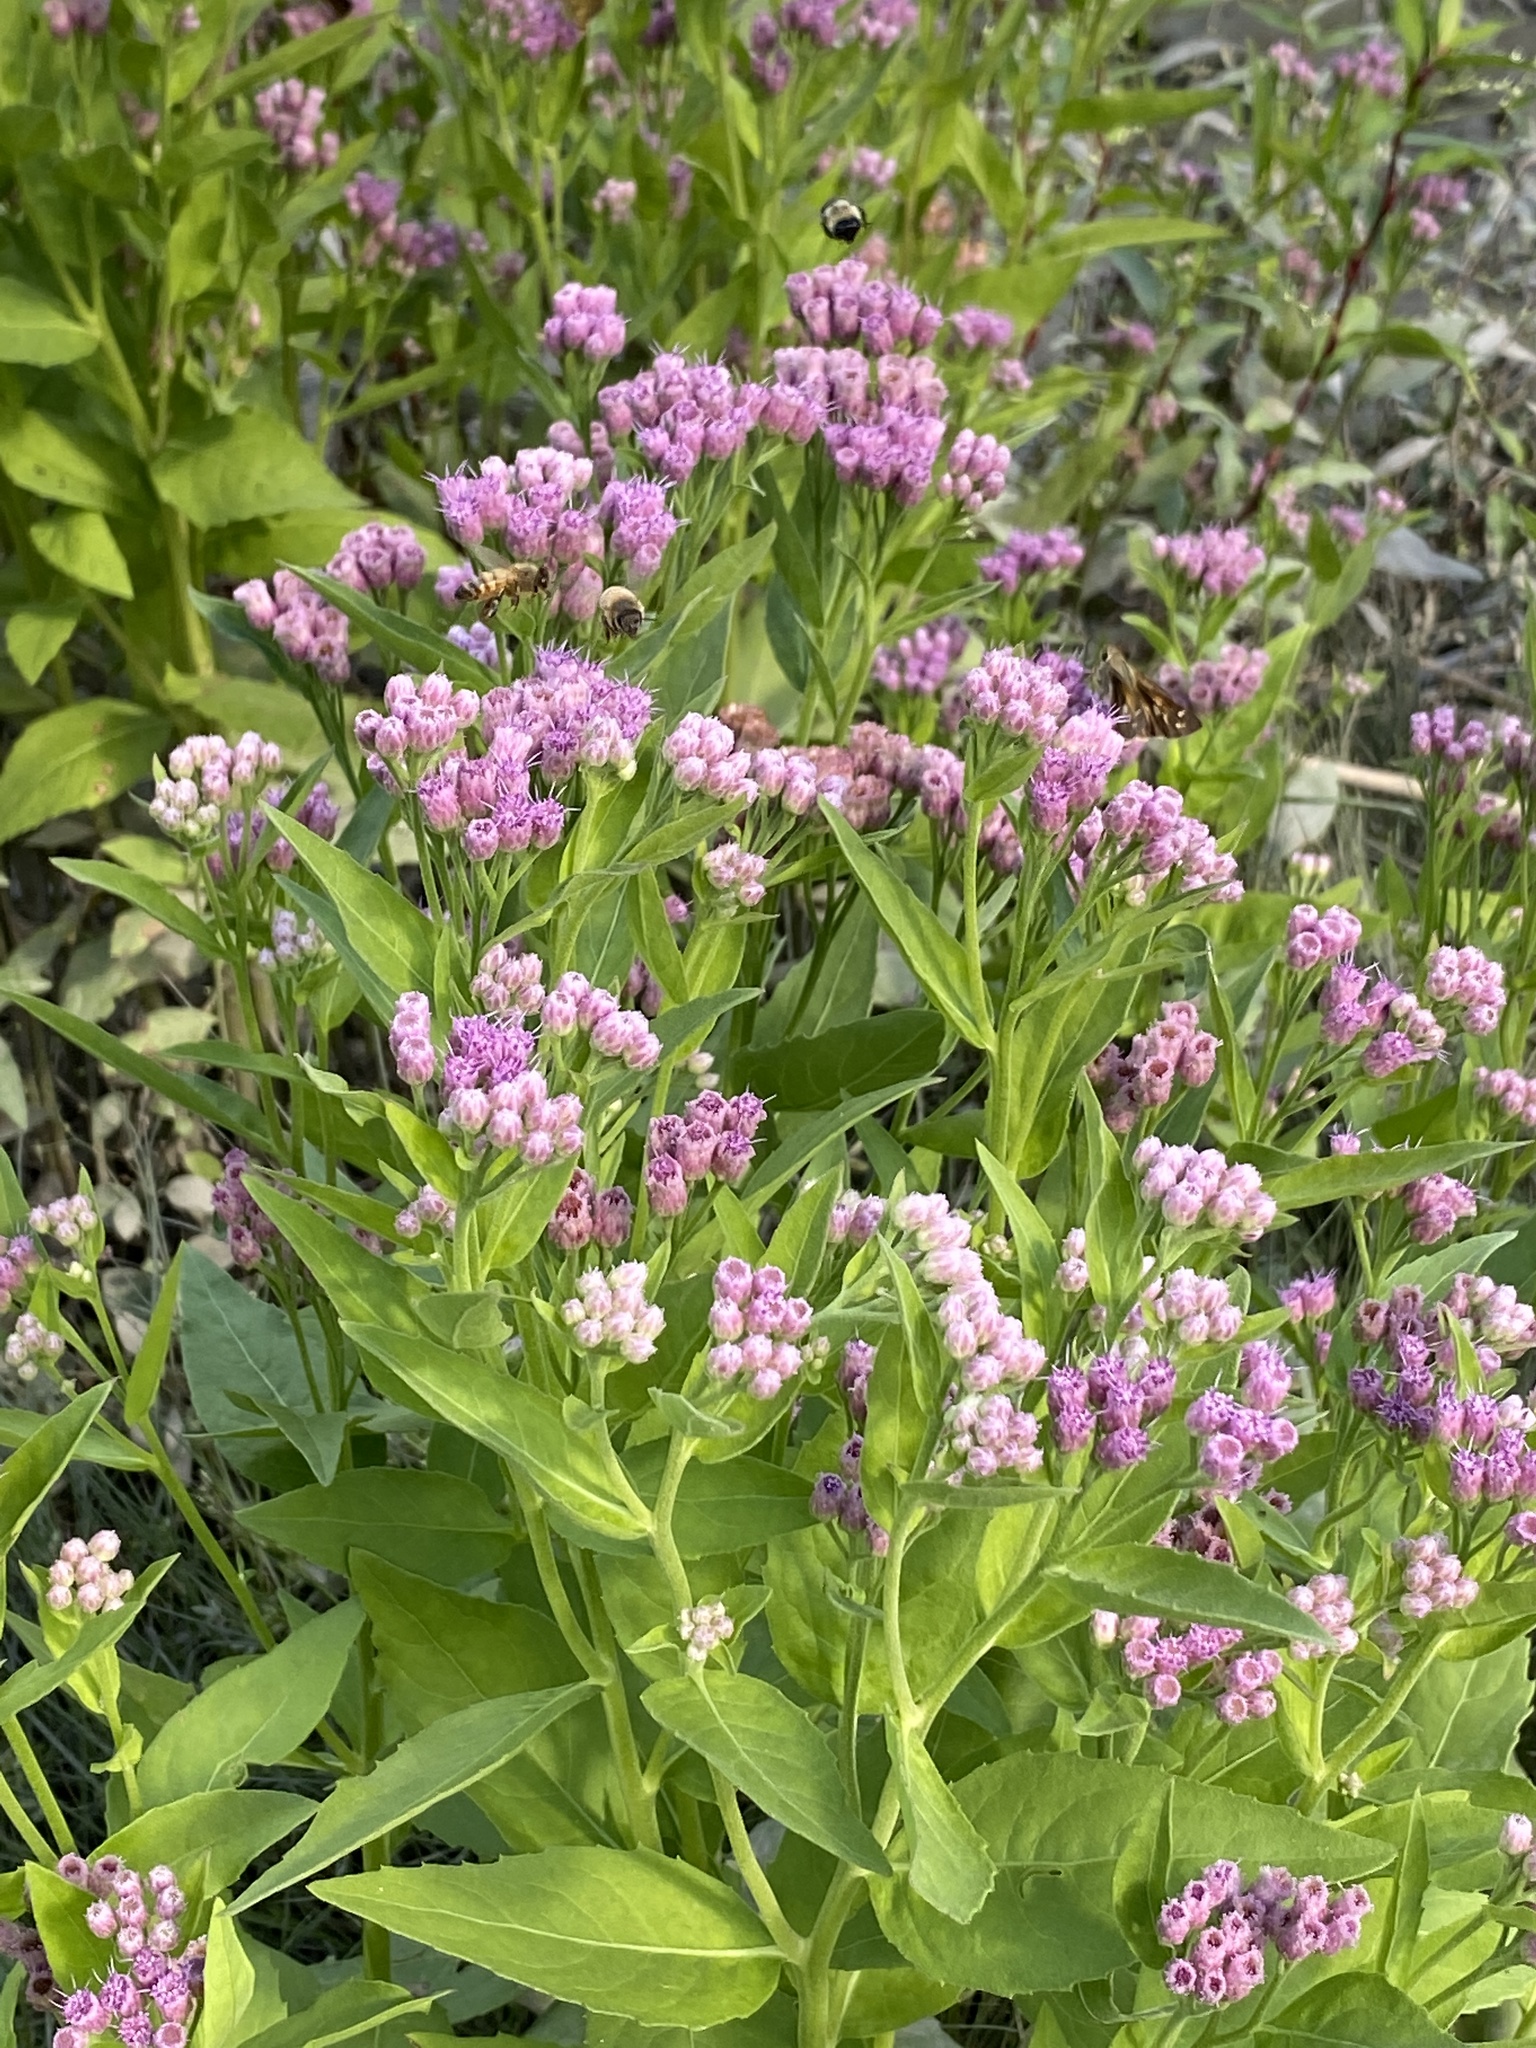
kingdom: Plantae
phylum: Tracheophyta
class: Magnoliopsida
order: Asterales
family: Asteraceae
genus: Pluchea
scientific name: Pluchea odorata
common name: Saltmarsh fleabane
